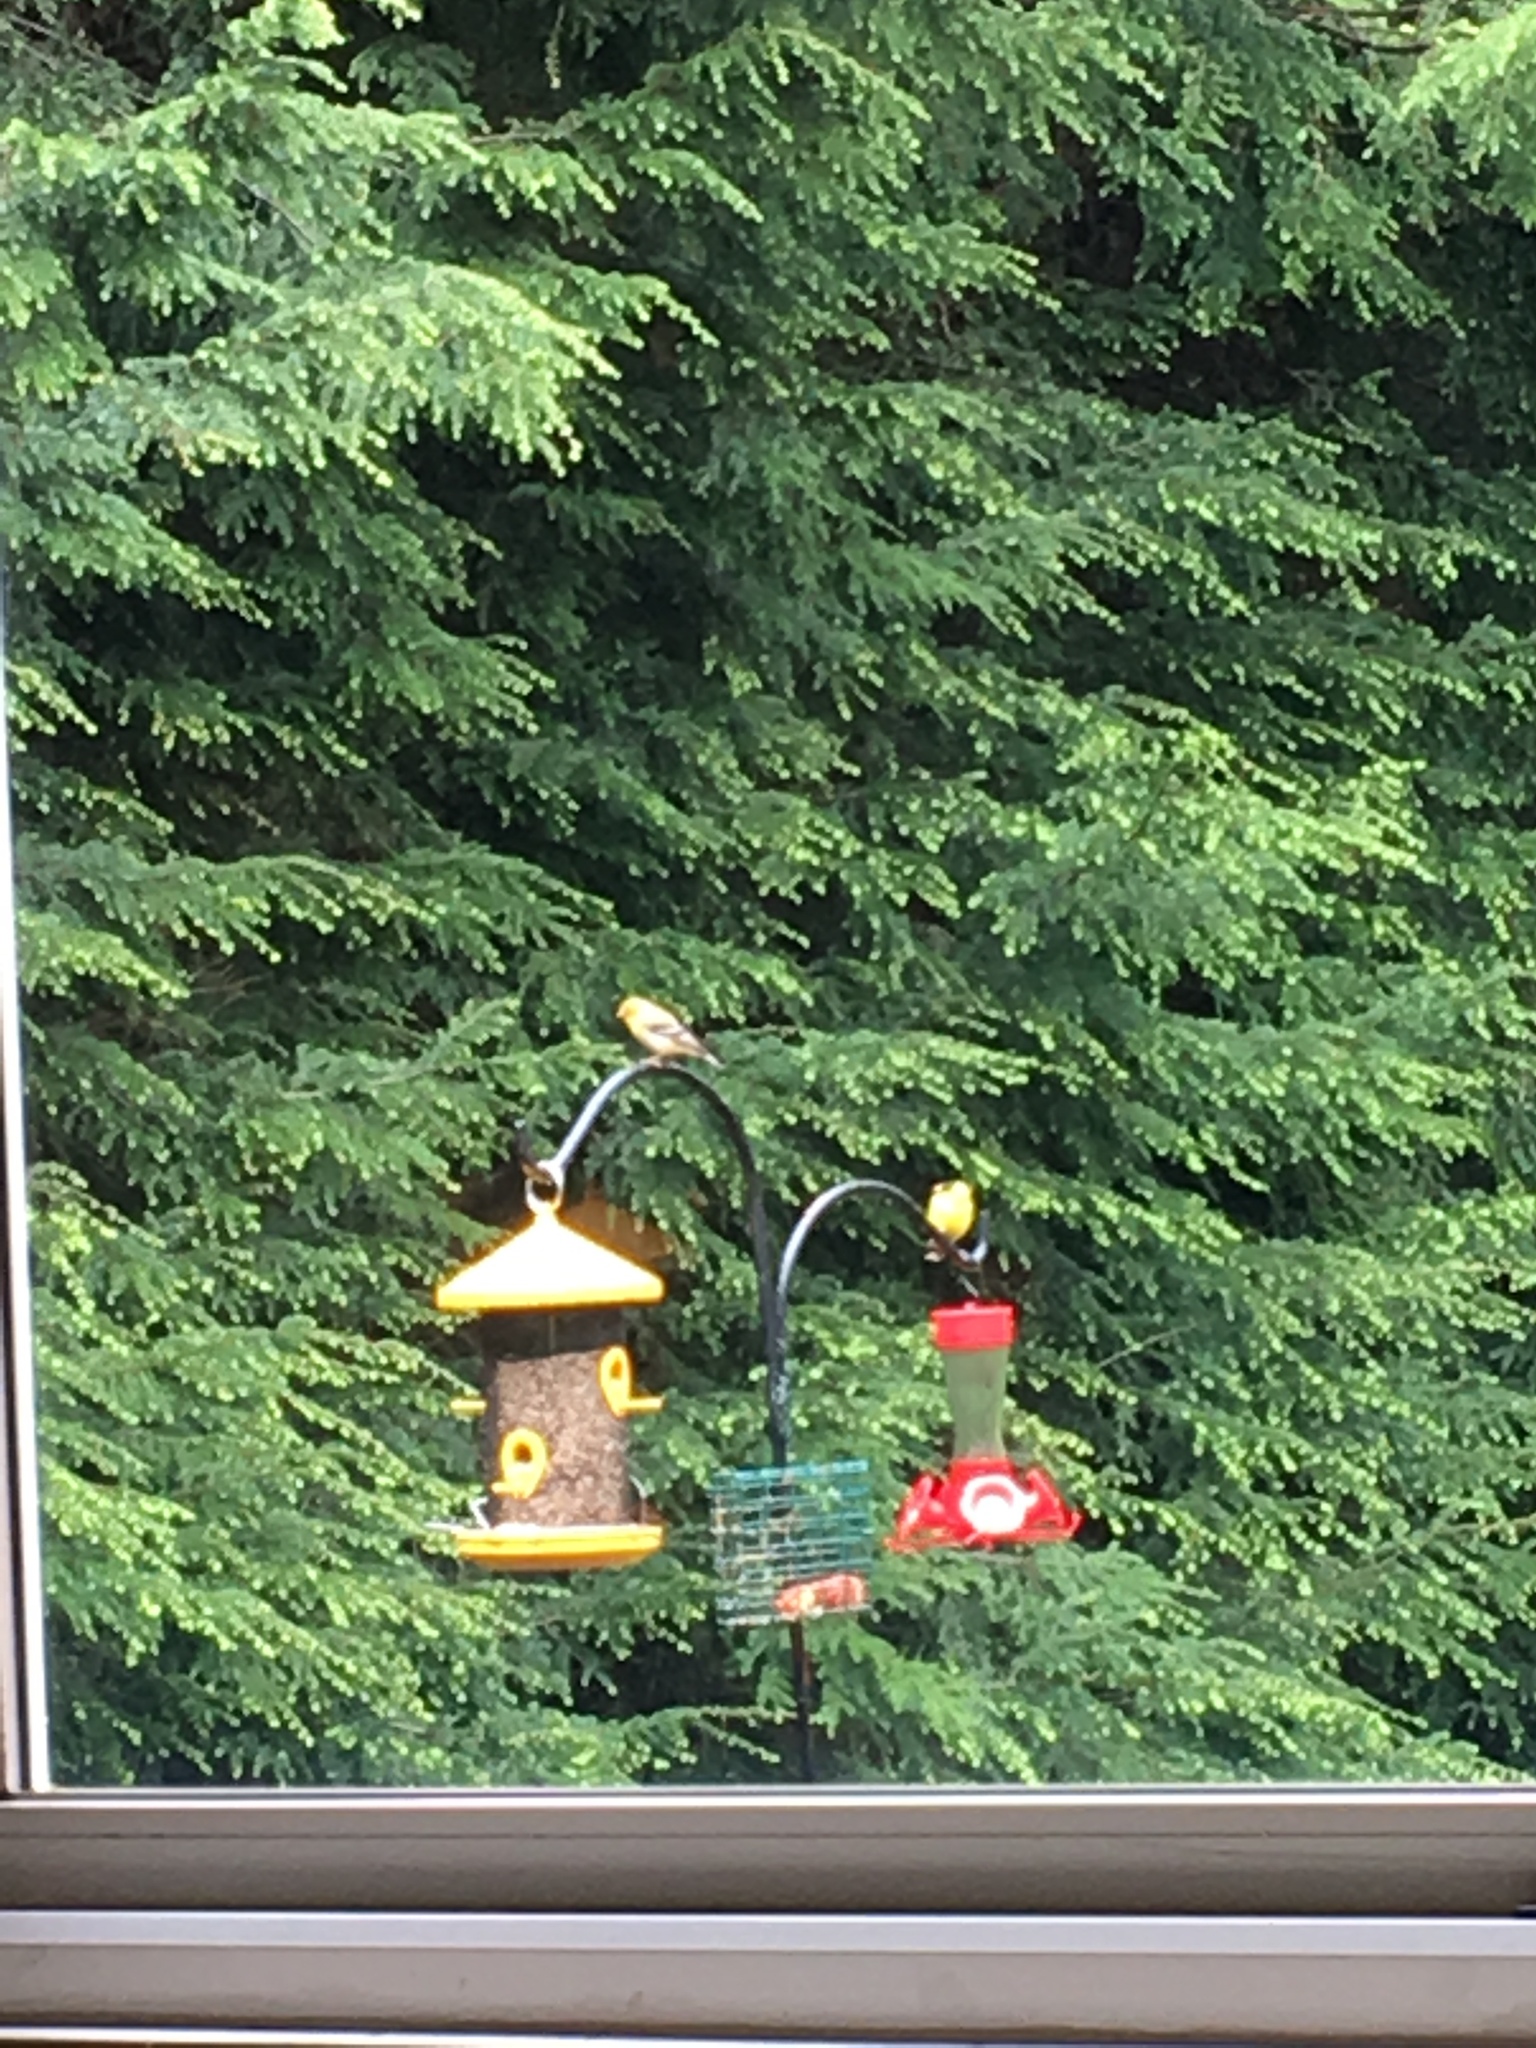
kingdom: Animalia
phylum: Chordata
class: Aves
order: Passeriformes
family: Fringillidae
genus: Spinus
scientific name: Spinus tristis
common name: American goldfinch
